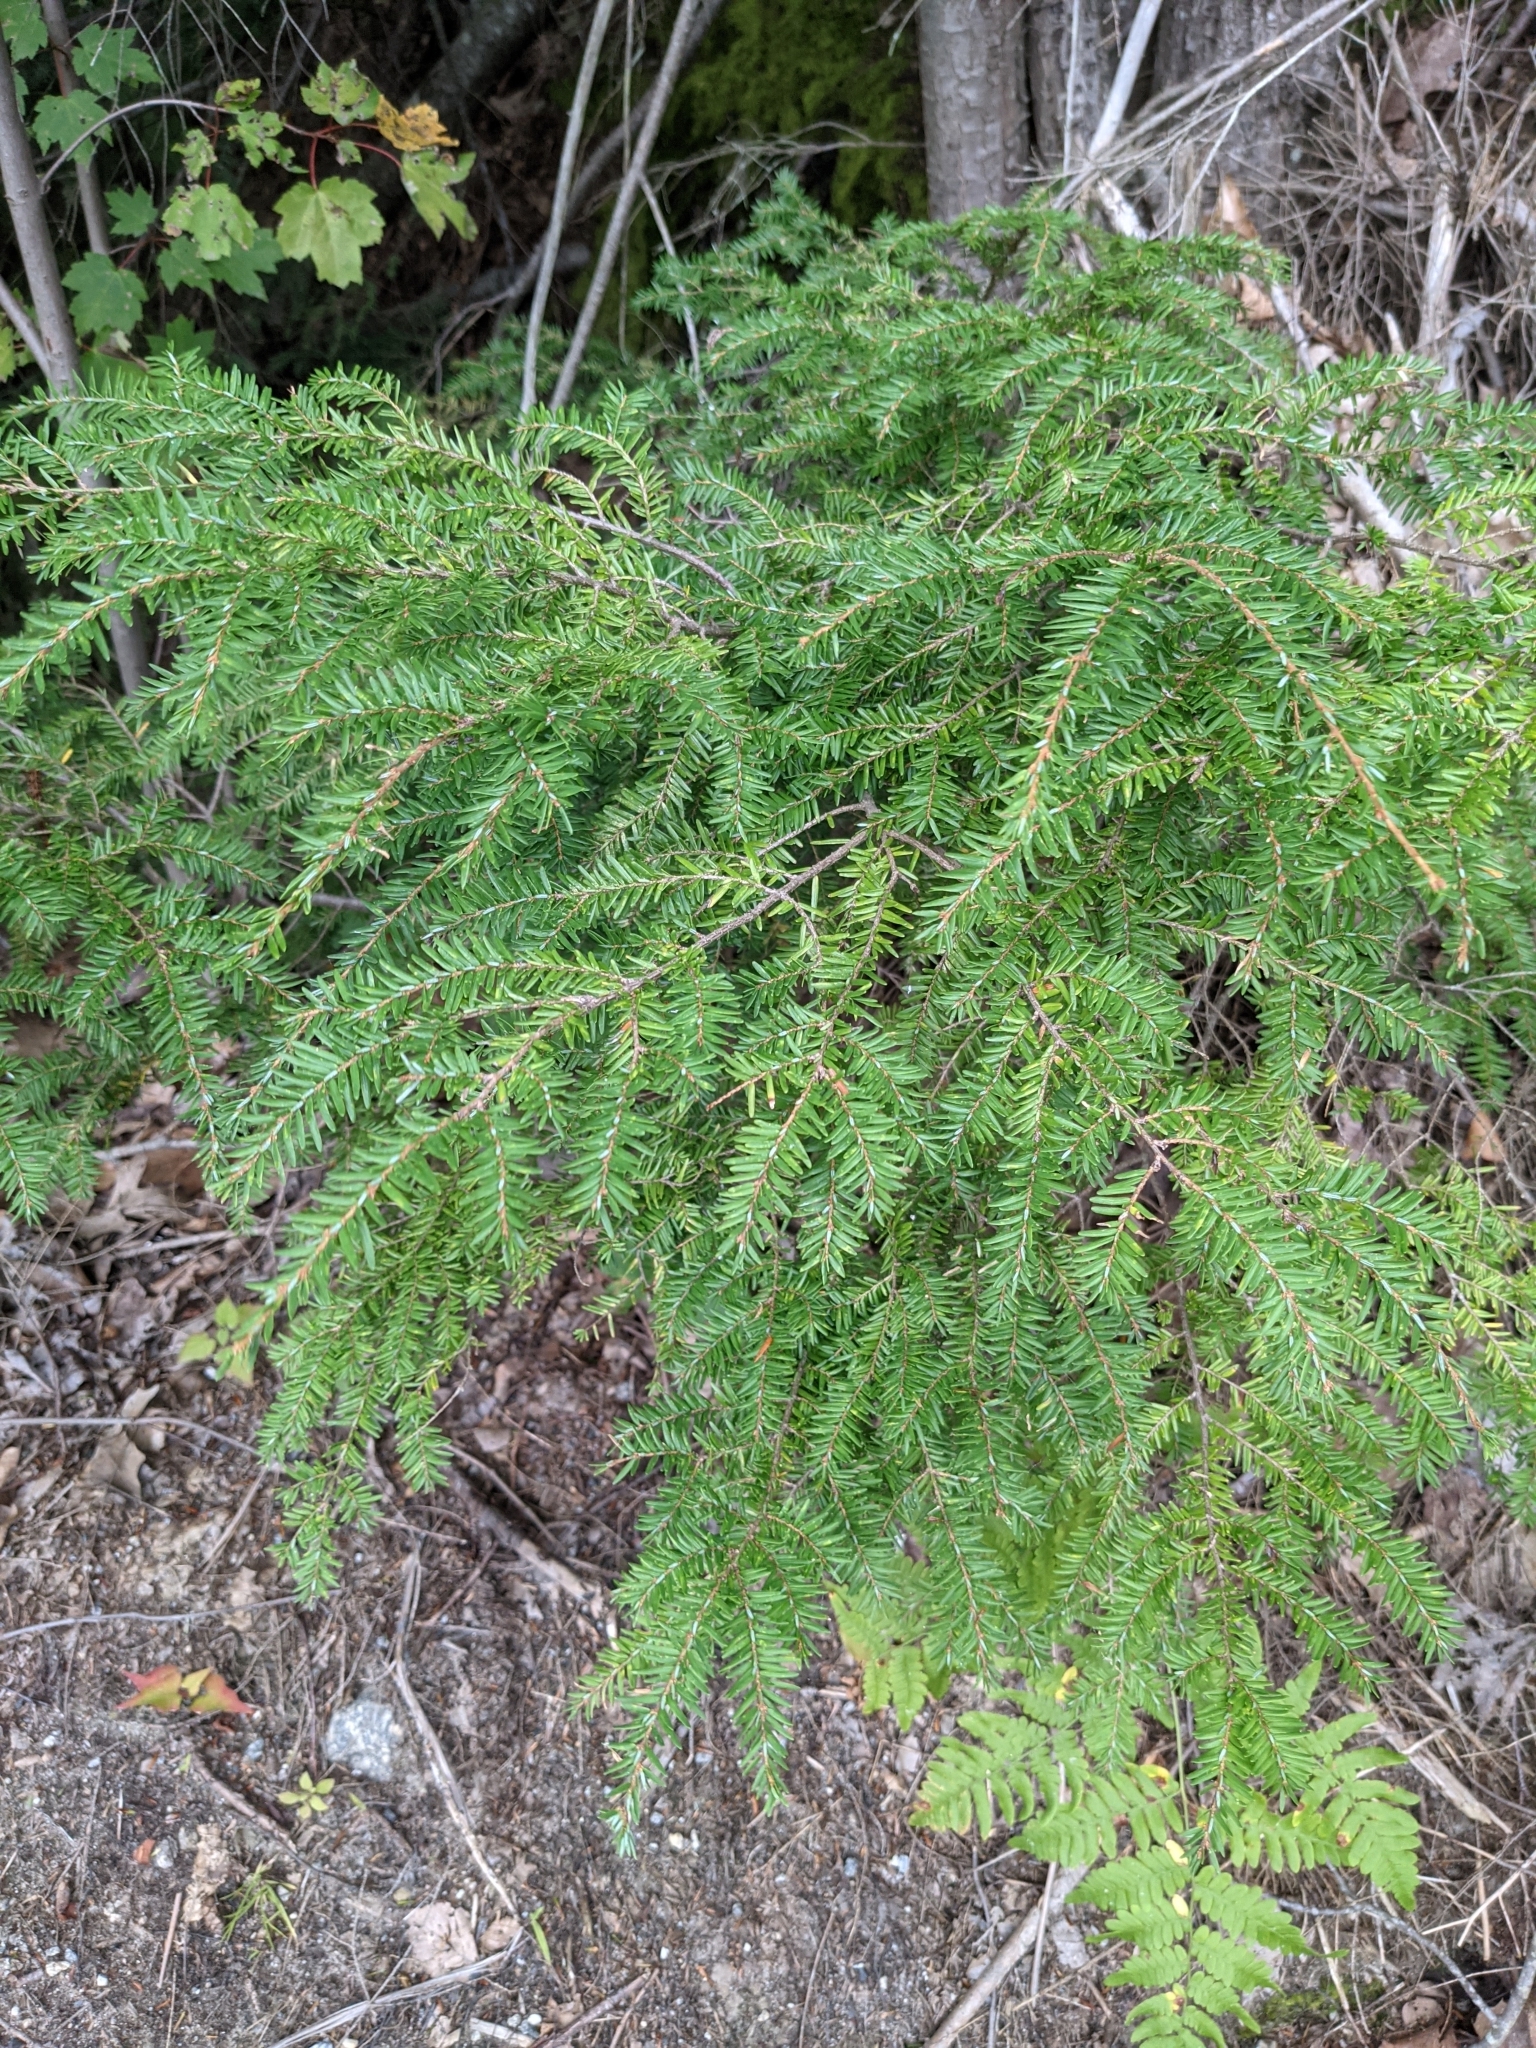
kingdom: Plantae
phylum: Tracheophyta
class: Pinopsida
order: Pinales
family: Pinaceae
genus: Tsuga
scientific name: Tsuga canadensis
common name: Eastern hemlock
